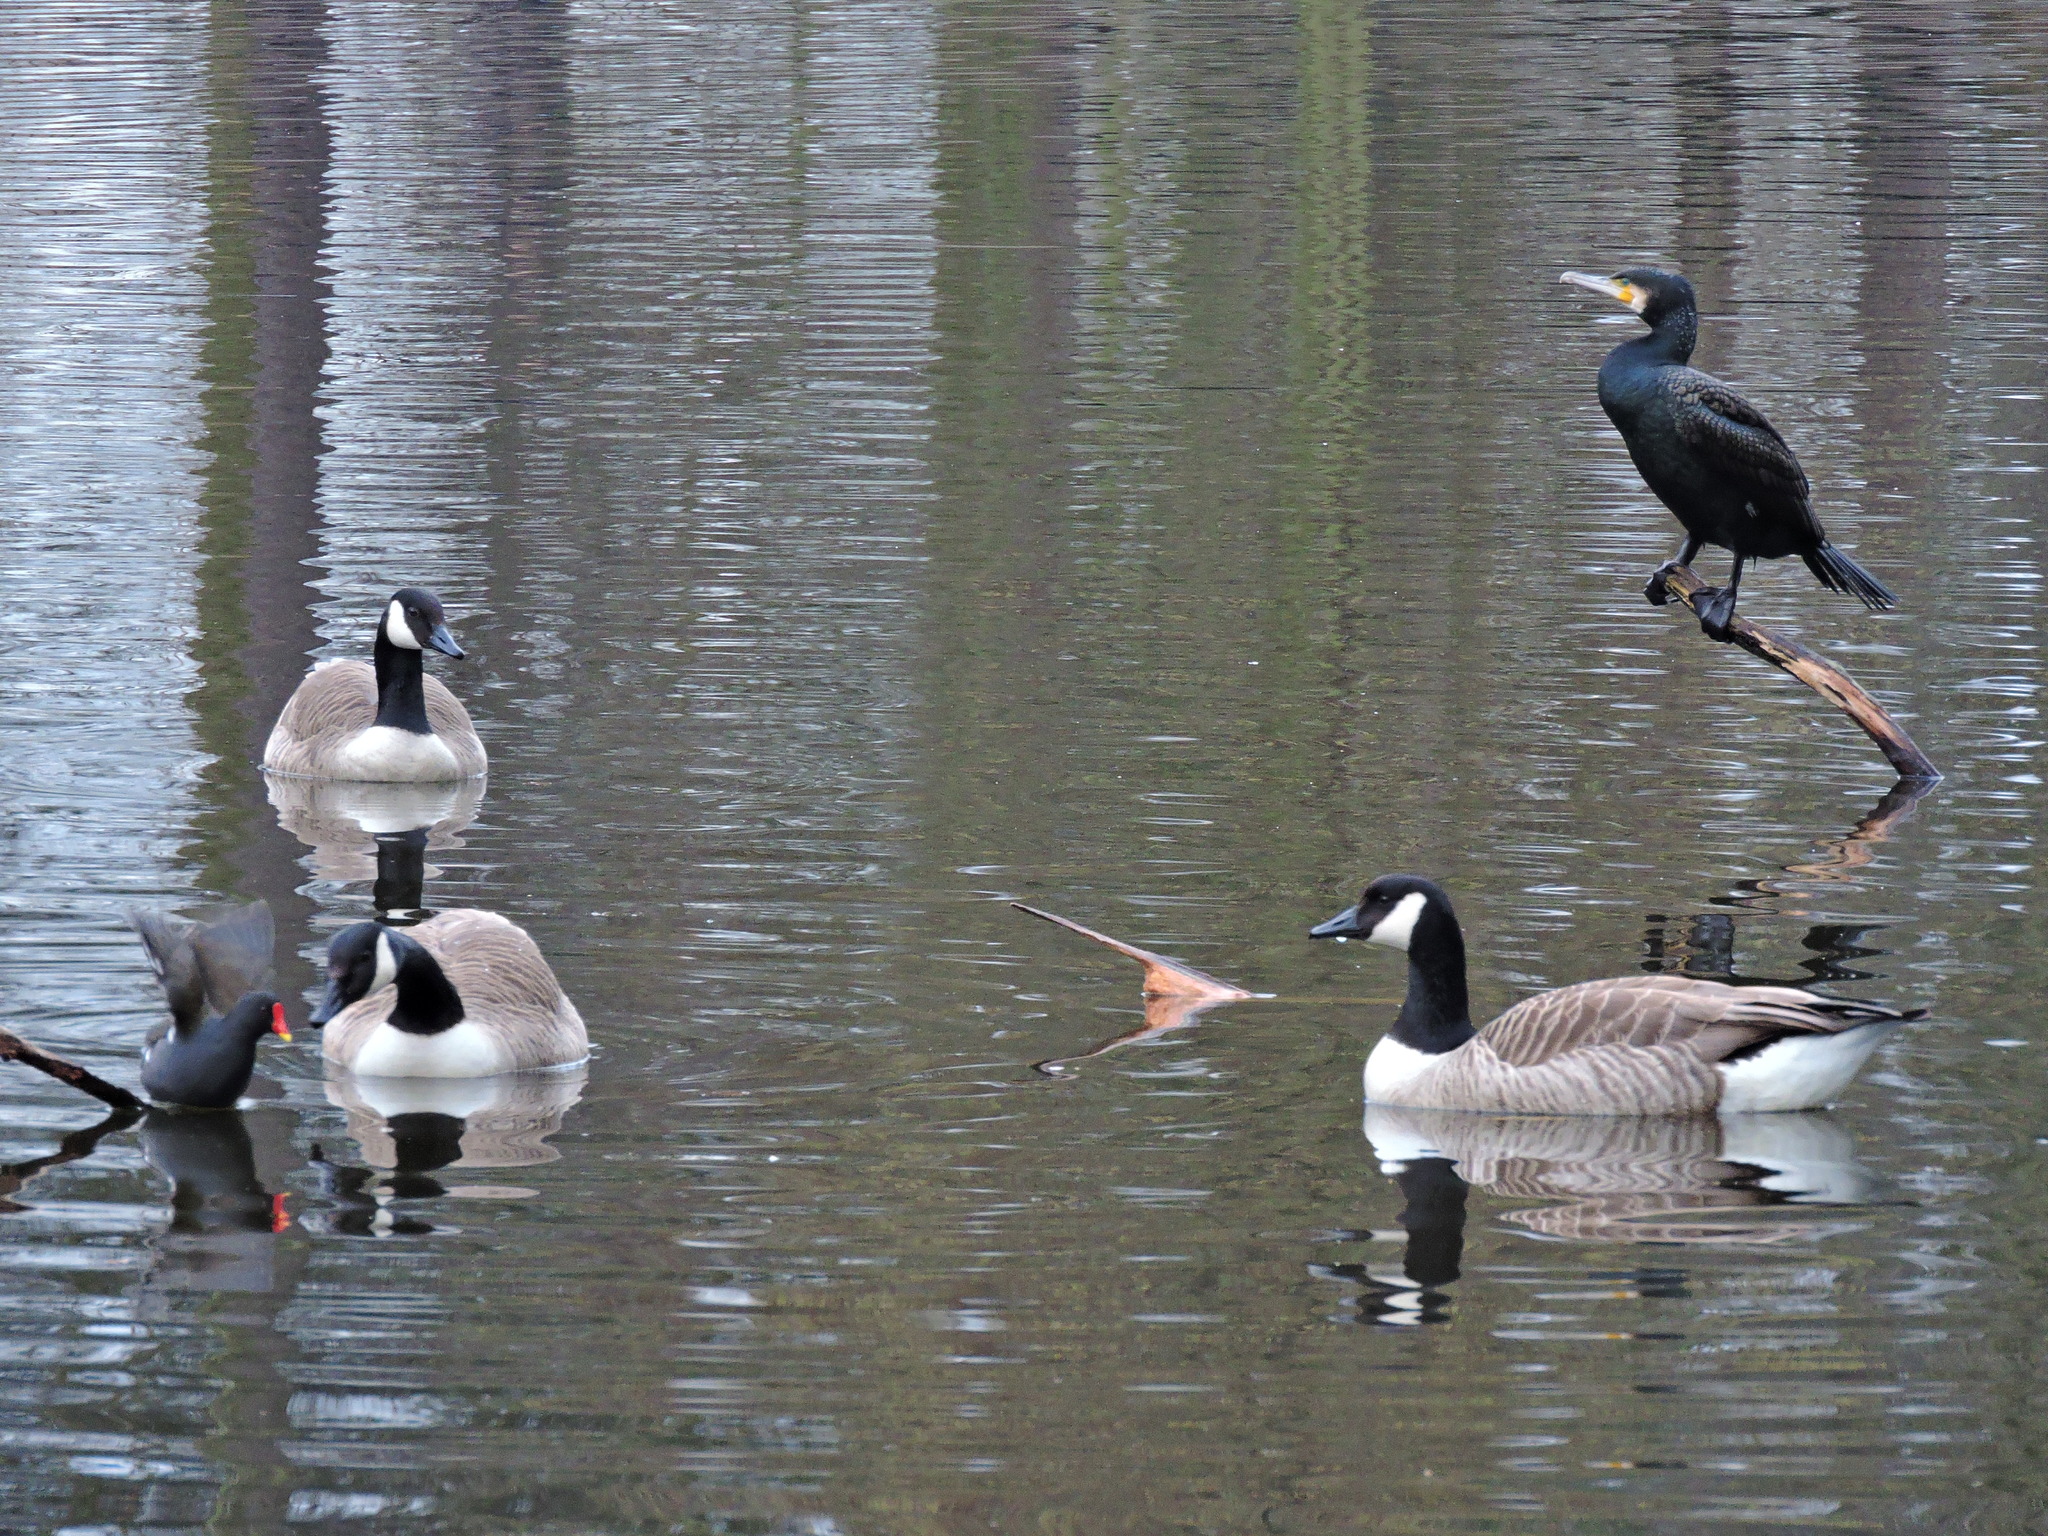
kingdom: Animalia
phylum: Chordata
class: Aves
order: Gruiformes
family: Rallidae
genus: Gallinula
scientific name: Gallinula chloropus
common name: Common moorhen
